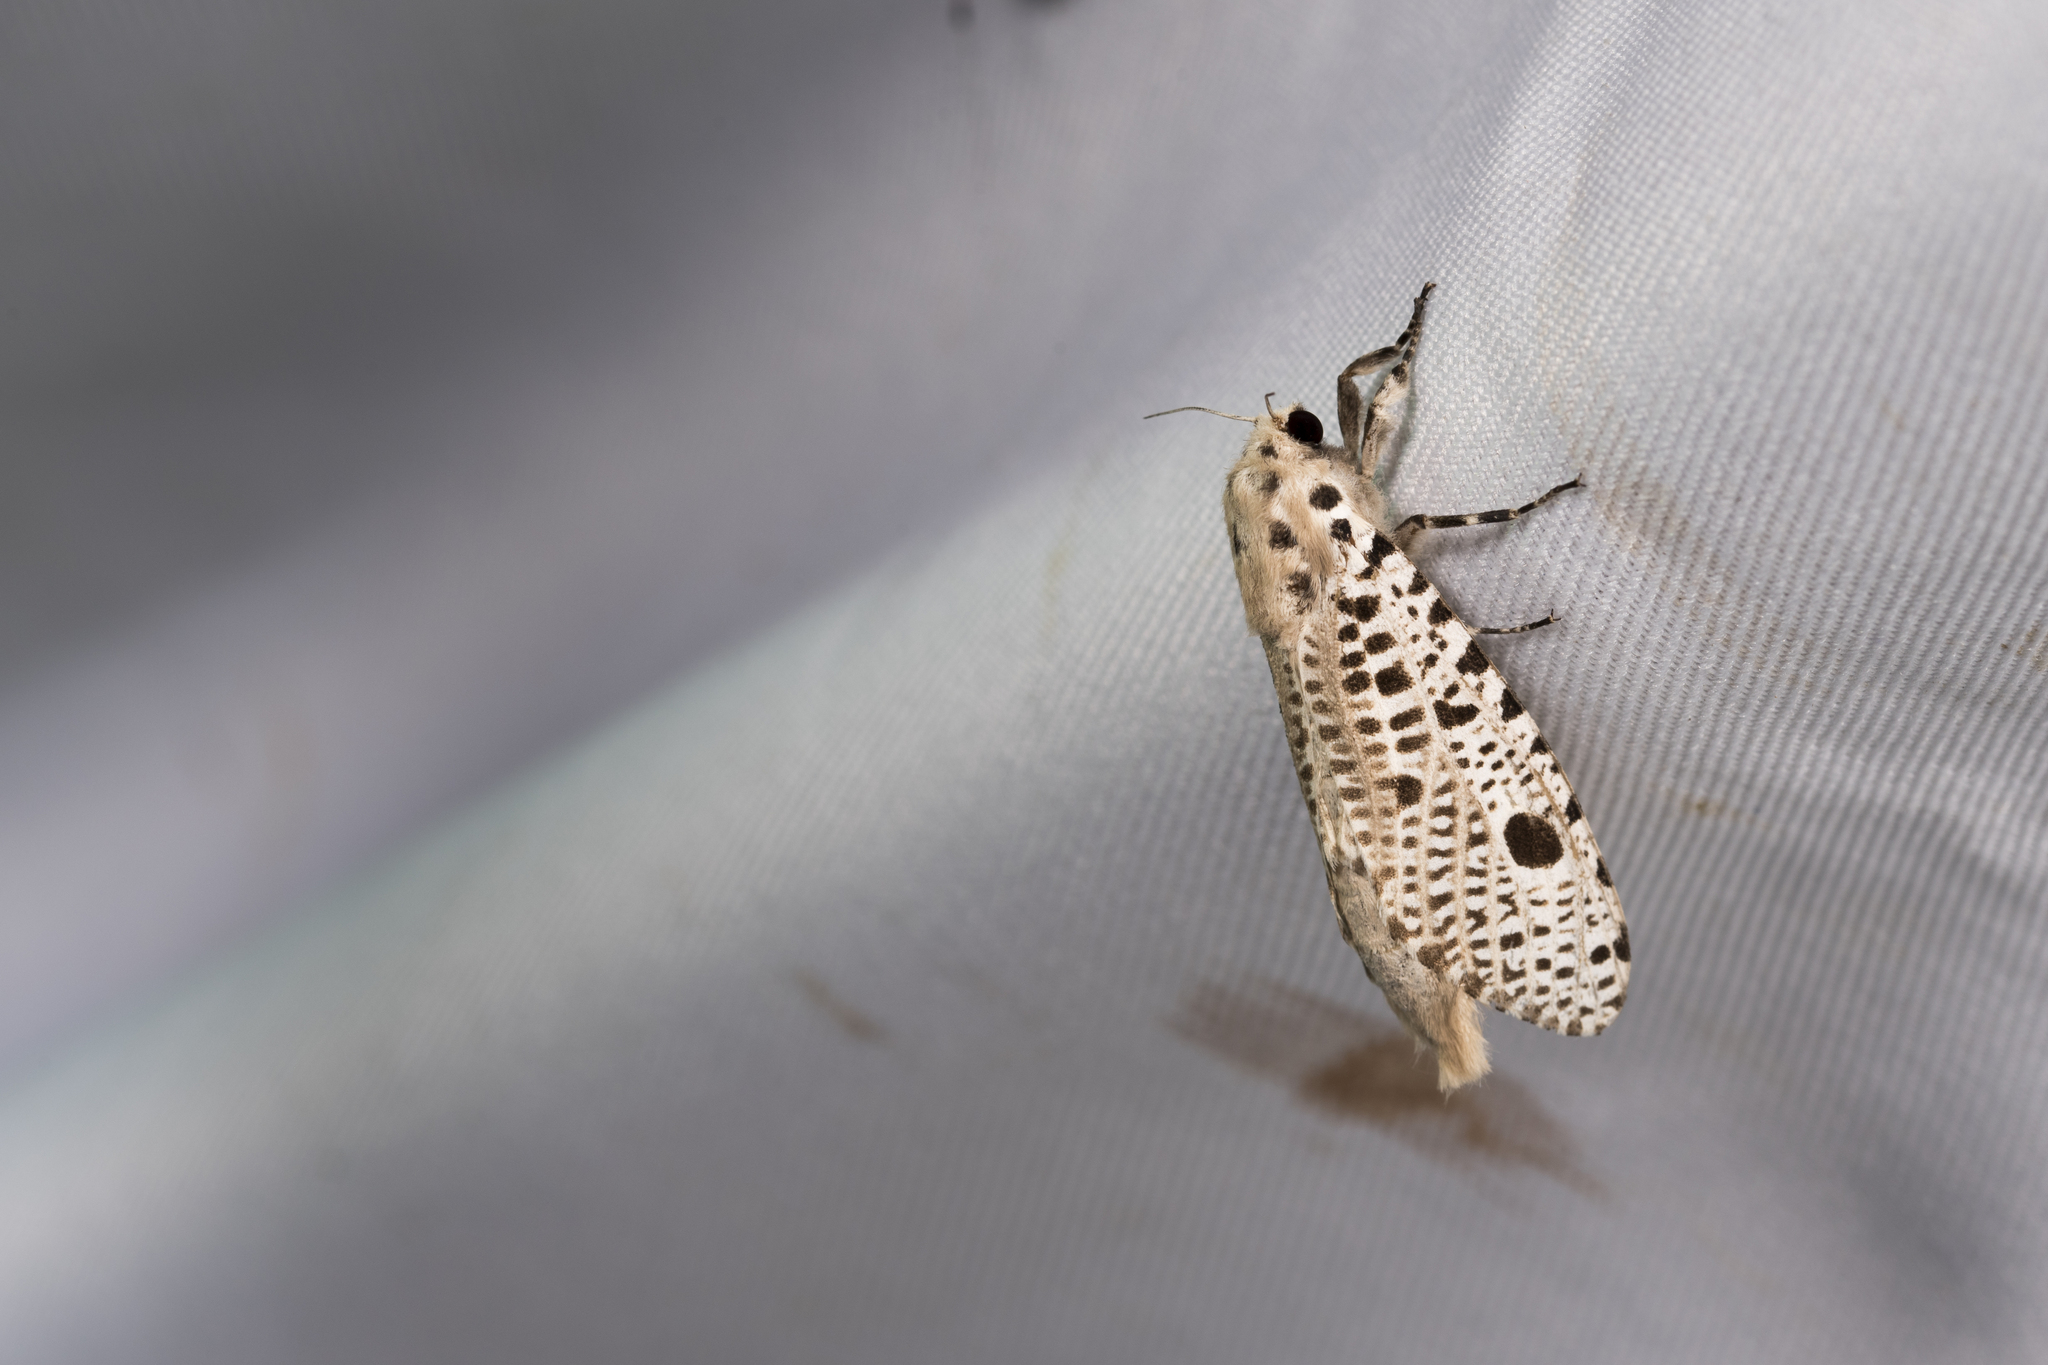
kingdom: Animalia
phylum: Arthropoda
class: Insecta
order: Lepidoptera
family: Cossidae
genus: Rapdalus
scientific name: Rapdalus pardicolor
